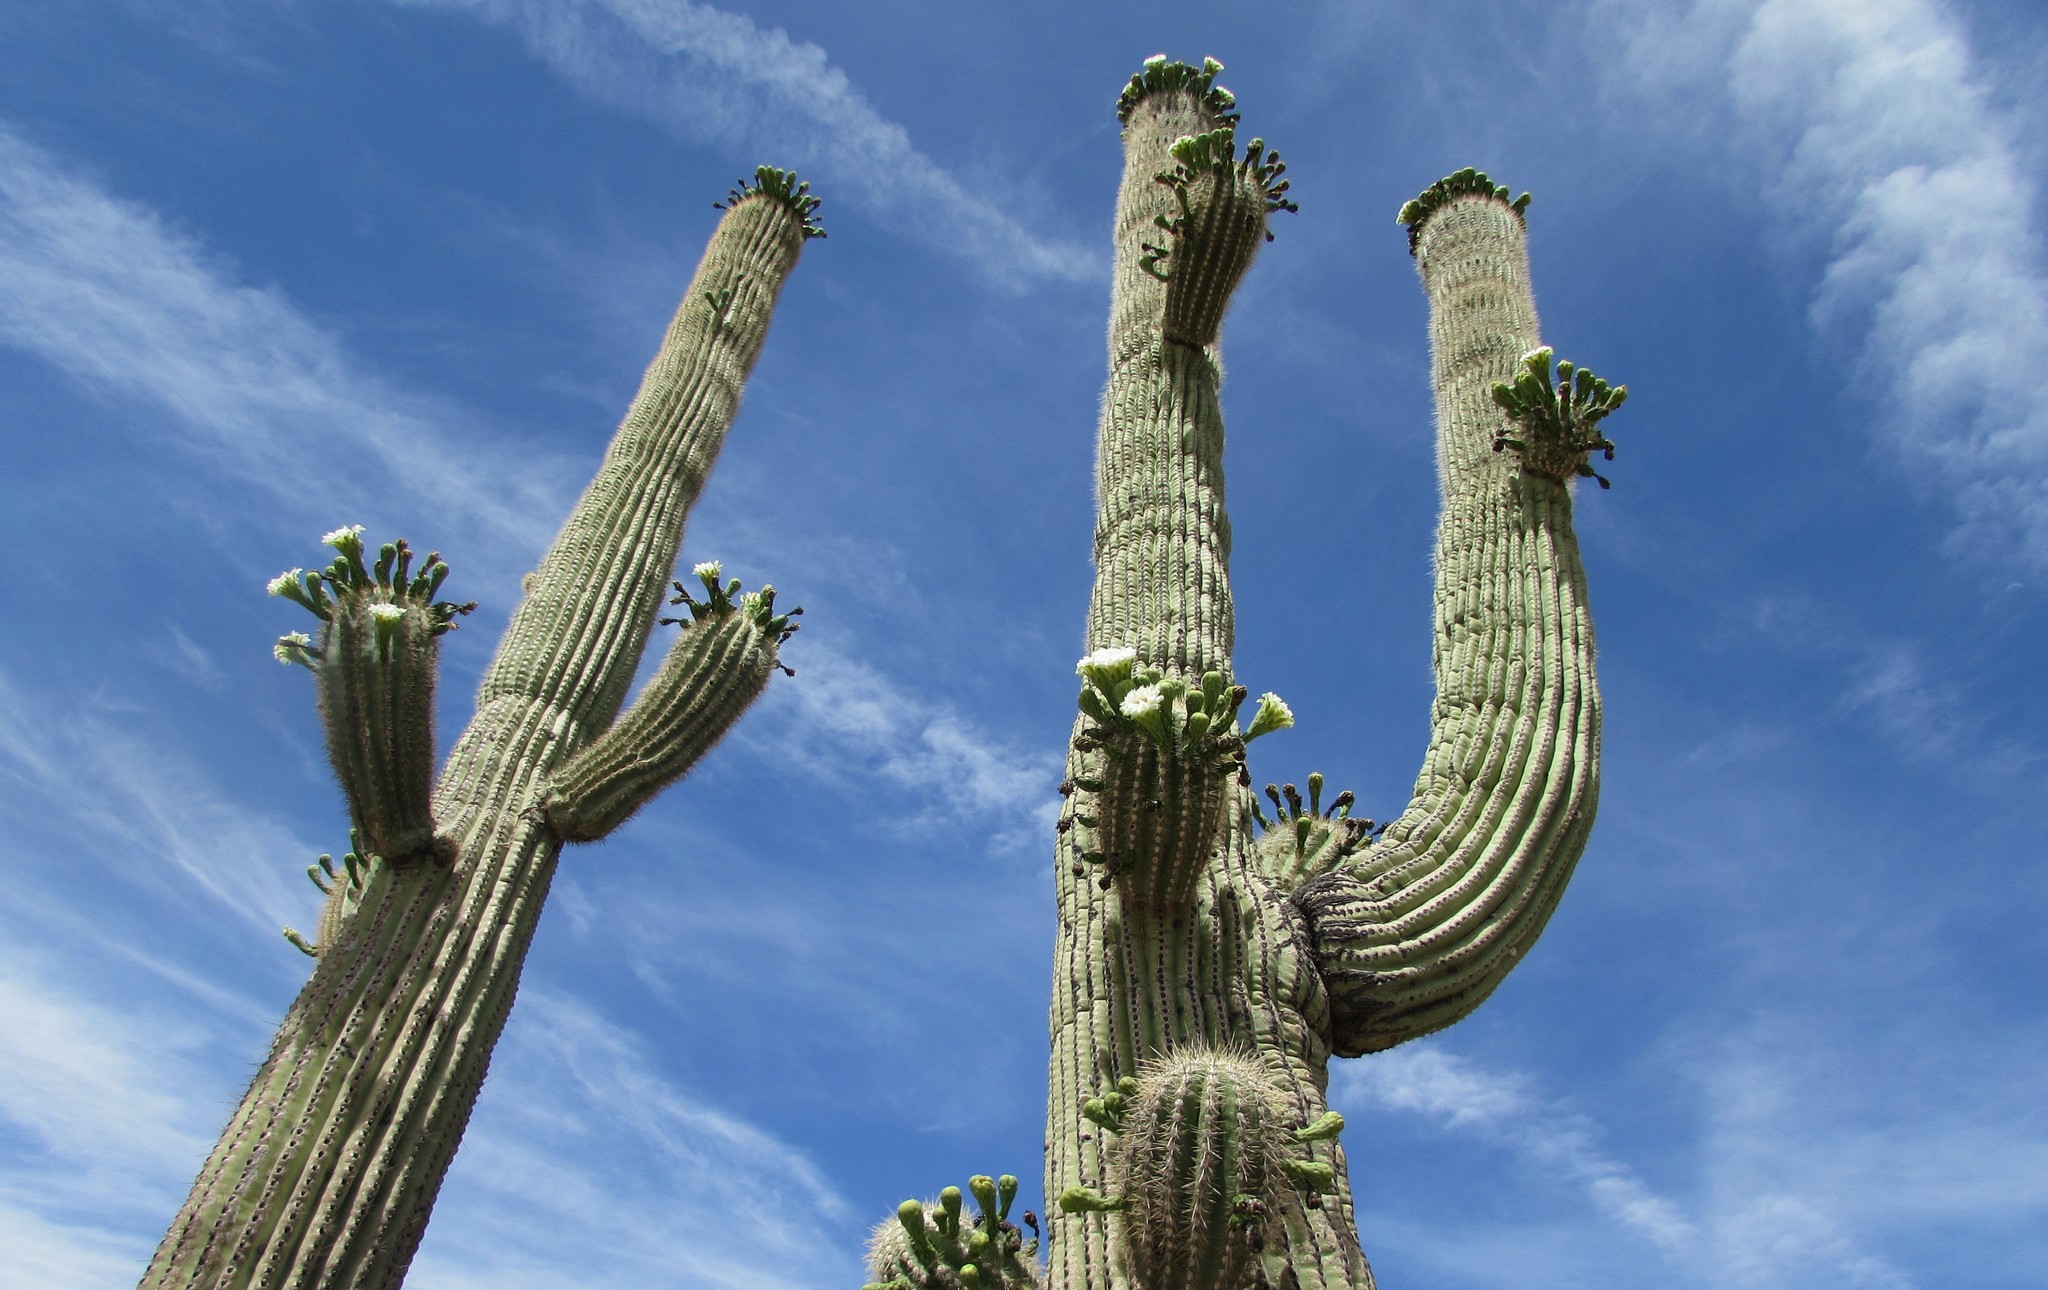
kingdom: Plantae
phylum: Tracheophyta
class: Magnoliopsida
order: Caryophyllales
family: Cactaceae
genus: Carnegiea
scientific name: Carnegiea gigantea
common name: Saguaro
